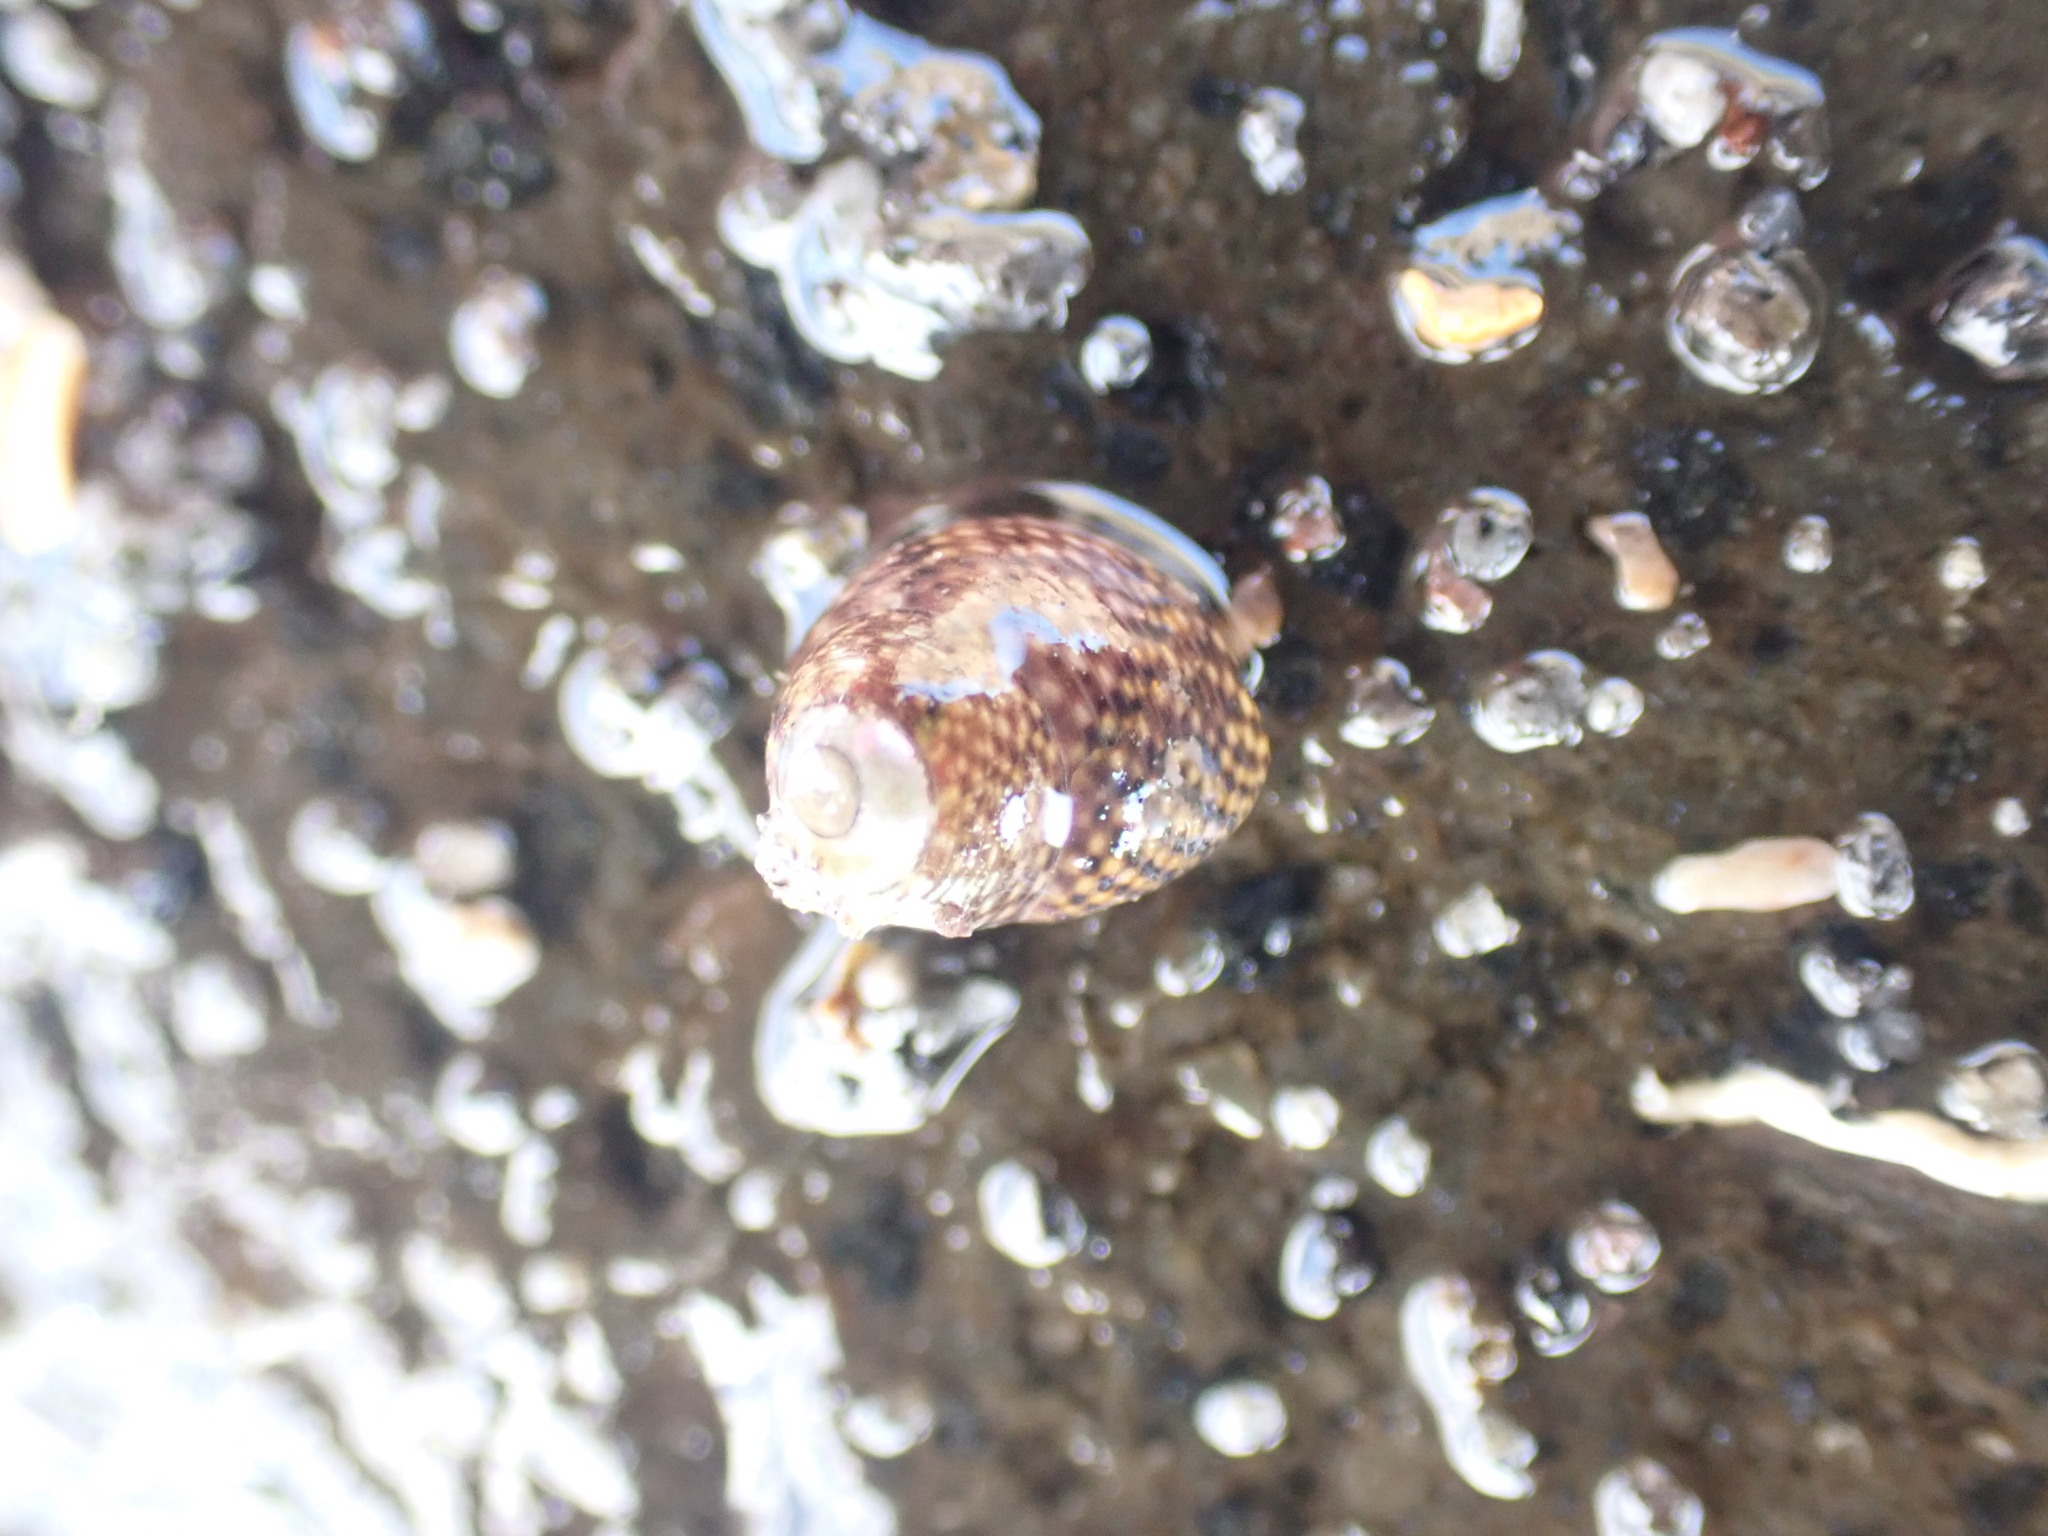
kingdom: Animalia
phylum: Mollusca
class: Gastropoda
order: Trochida
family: Trochidae
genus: Micrelenchus
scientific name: Micrelenchus tessellatus
